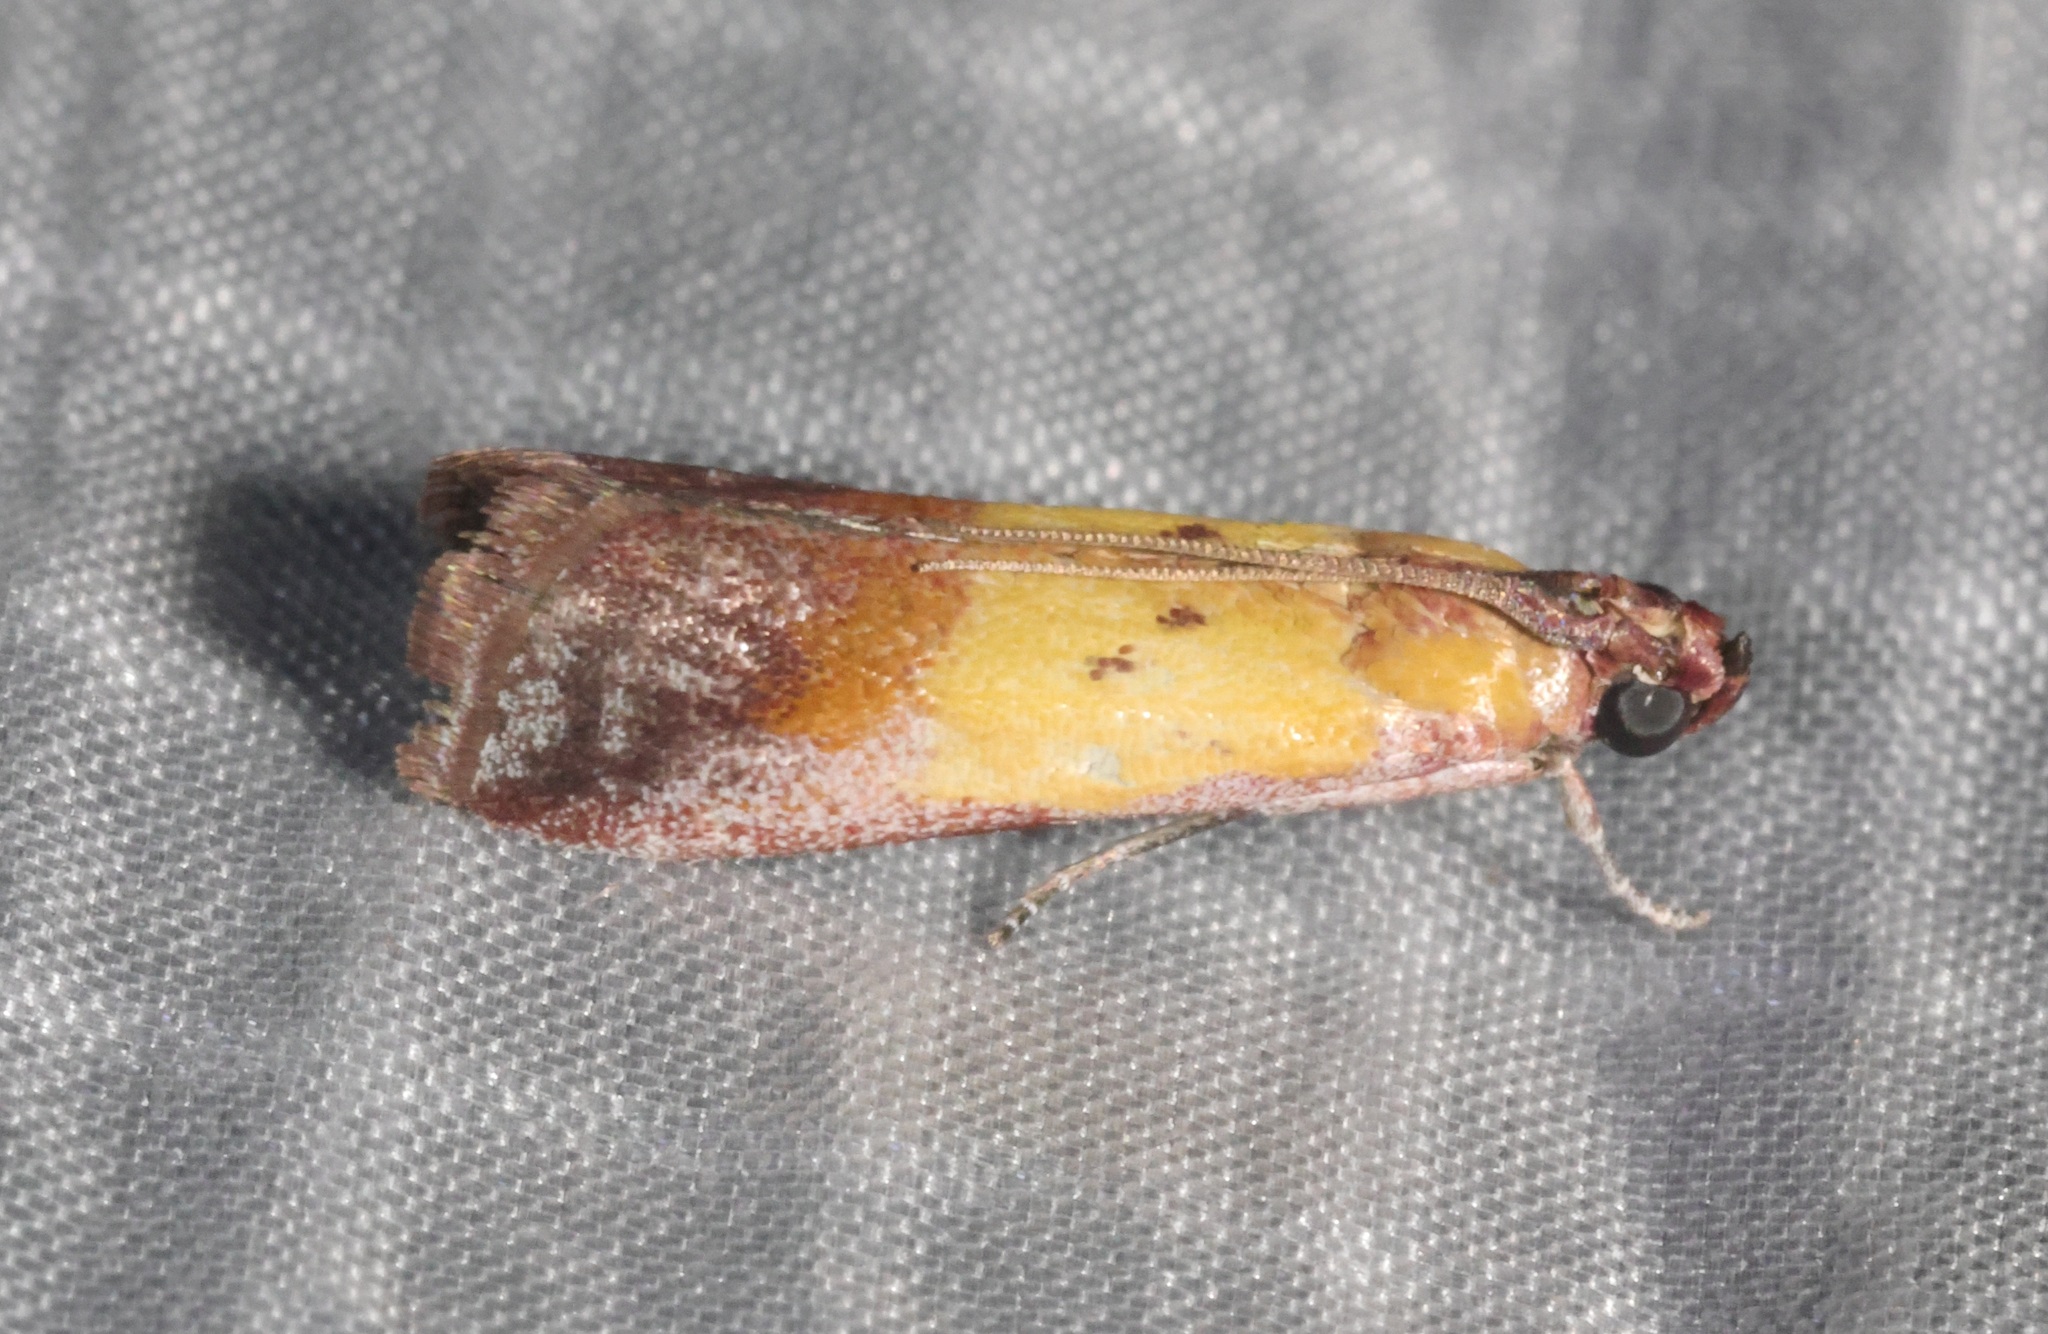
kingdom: Animalia
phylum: Arthropoda
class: Insecta
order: Lepidoptera
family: Pyralidae
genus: Piesmopoda
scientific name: Piesmopoda
